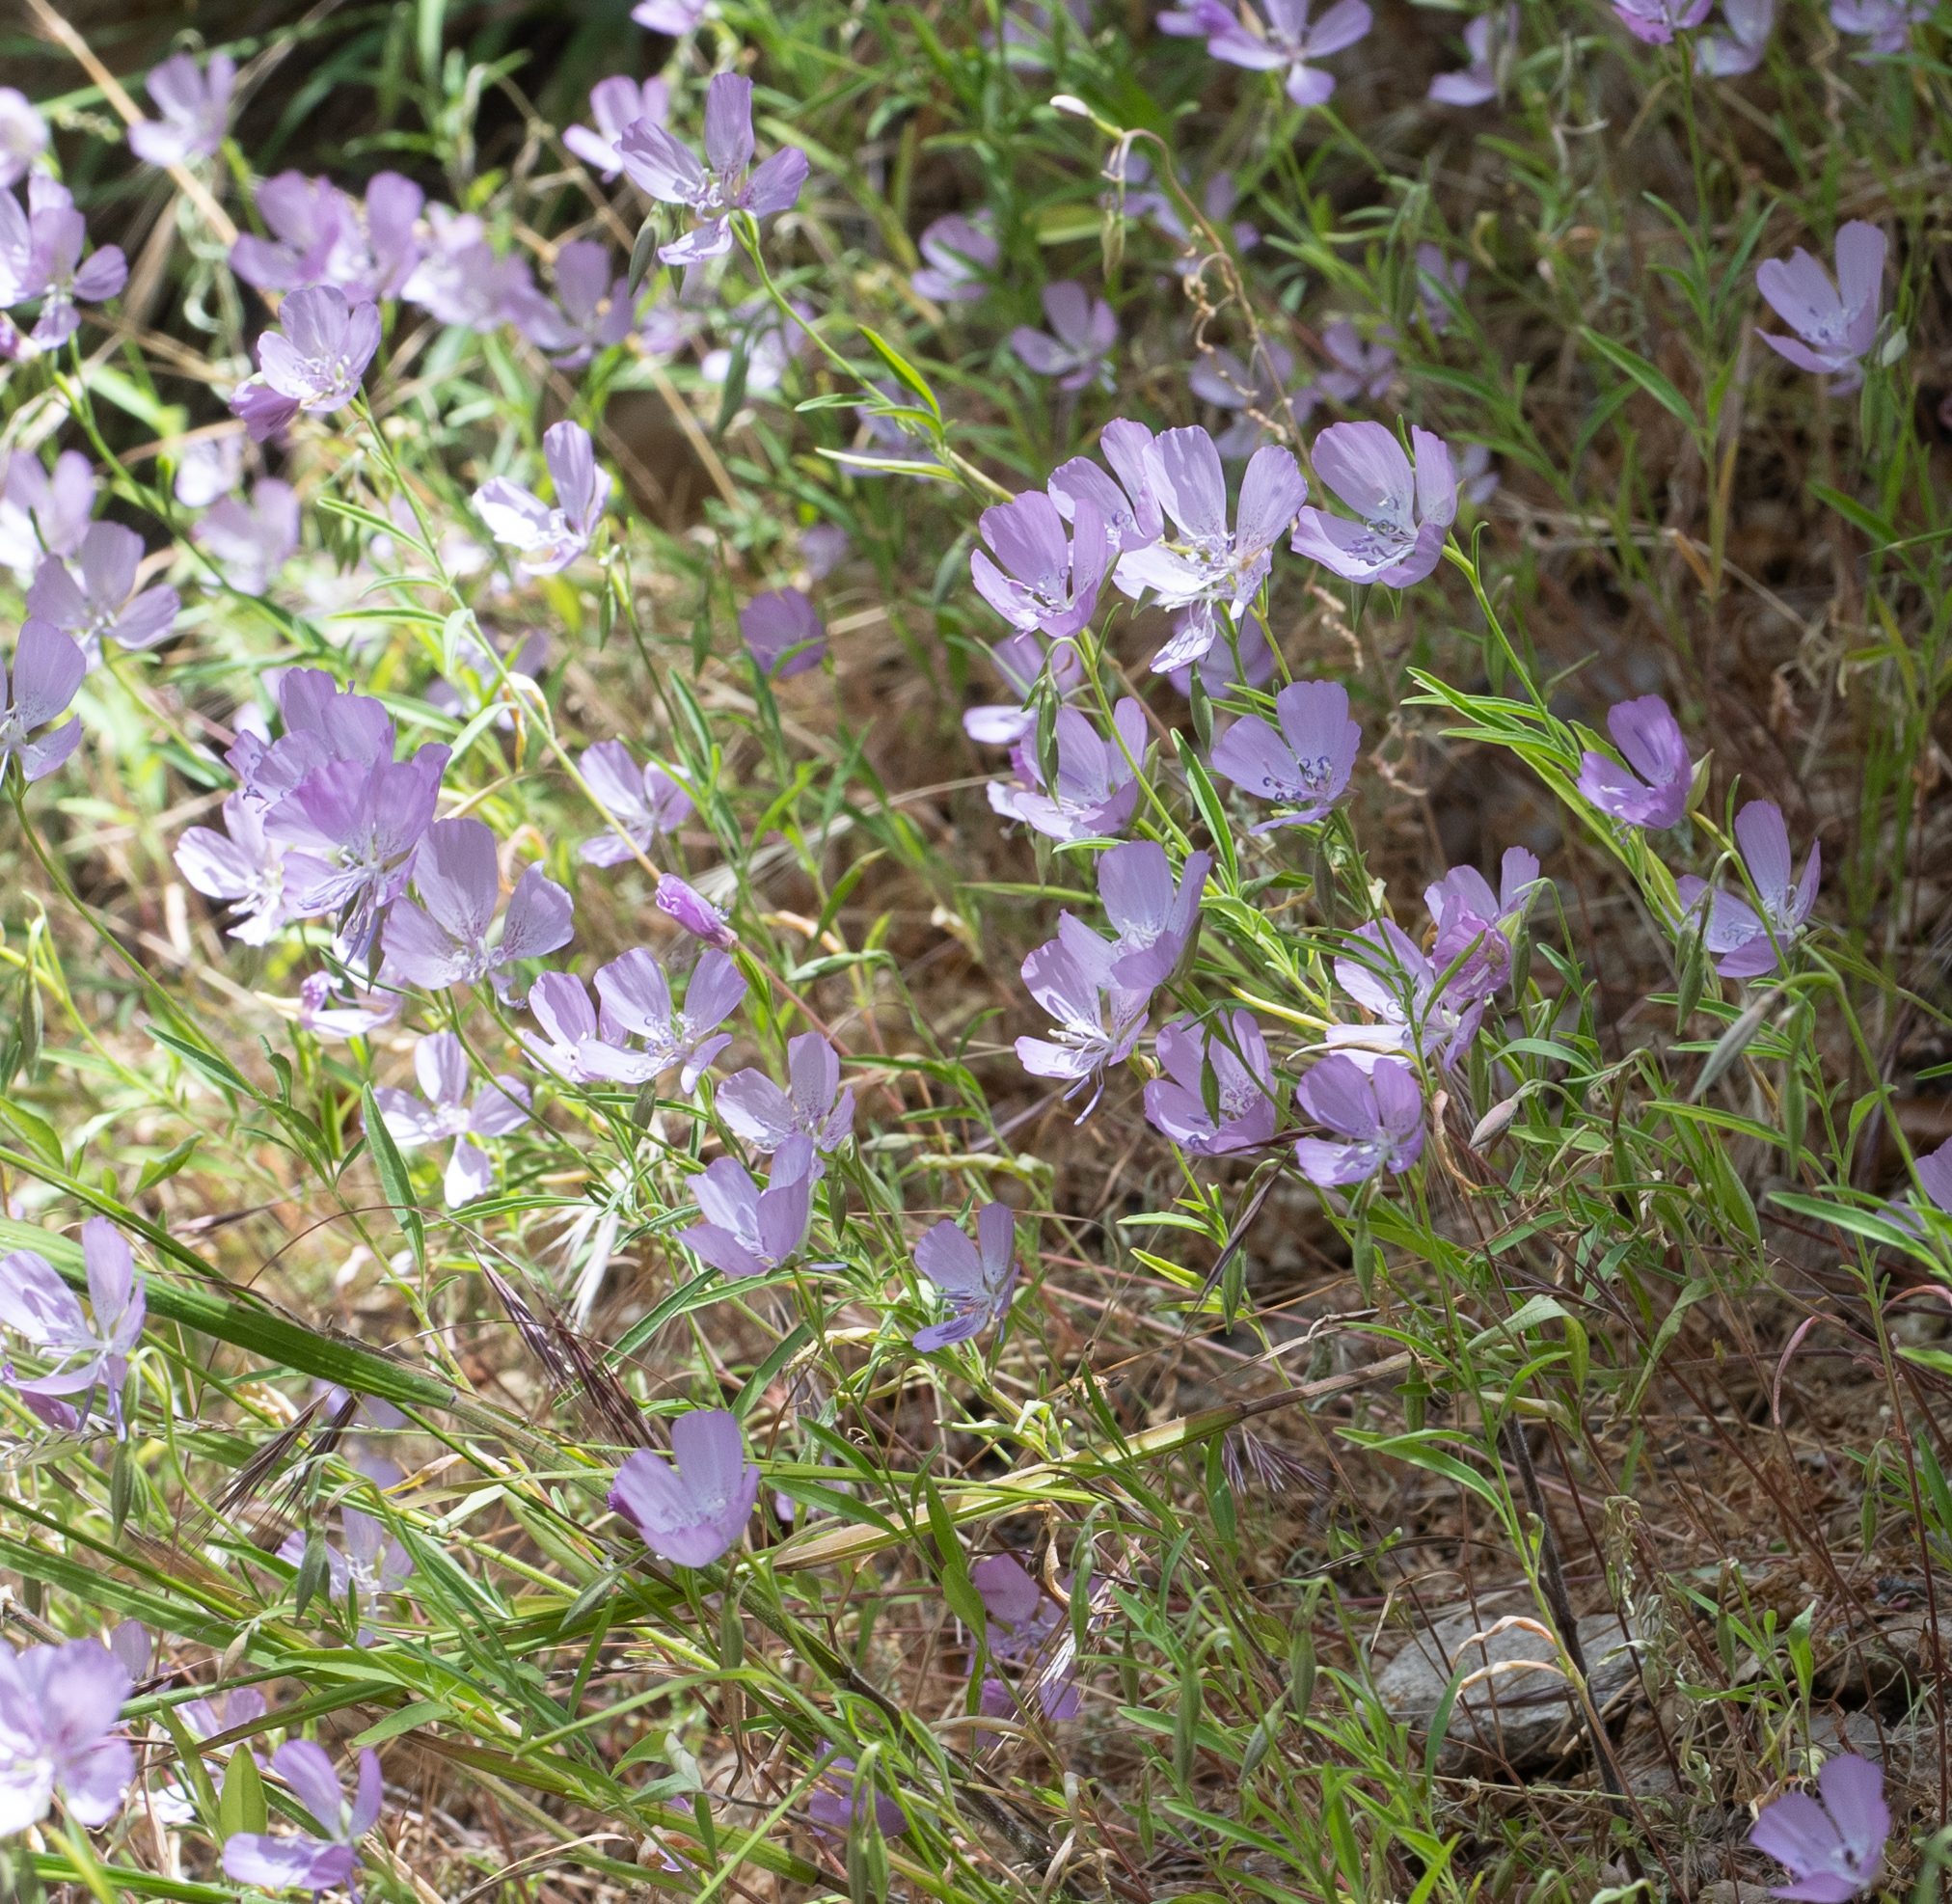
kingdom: Plantae
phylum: Tracheophyta
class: Magnoliopsida
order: Myrtales
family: Onagraceae
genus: Clarkia
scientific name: Clarkia dudleyana
